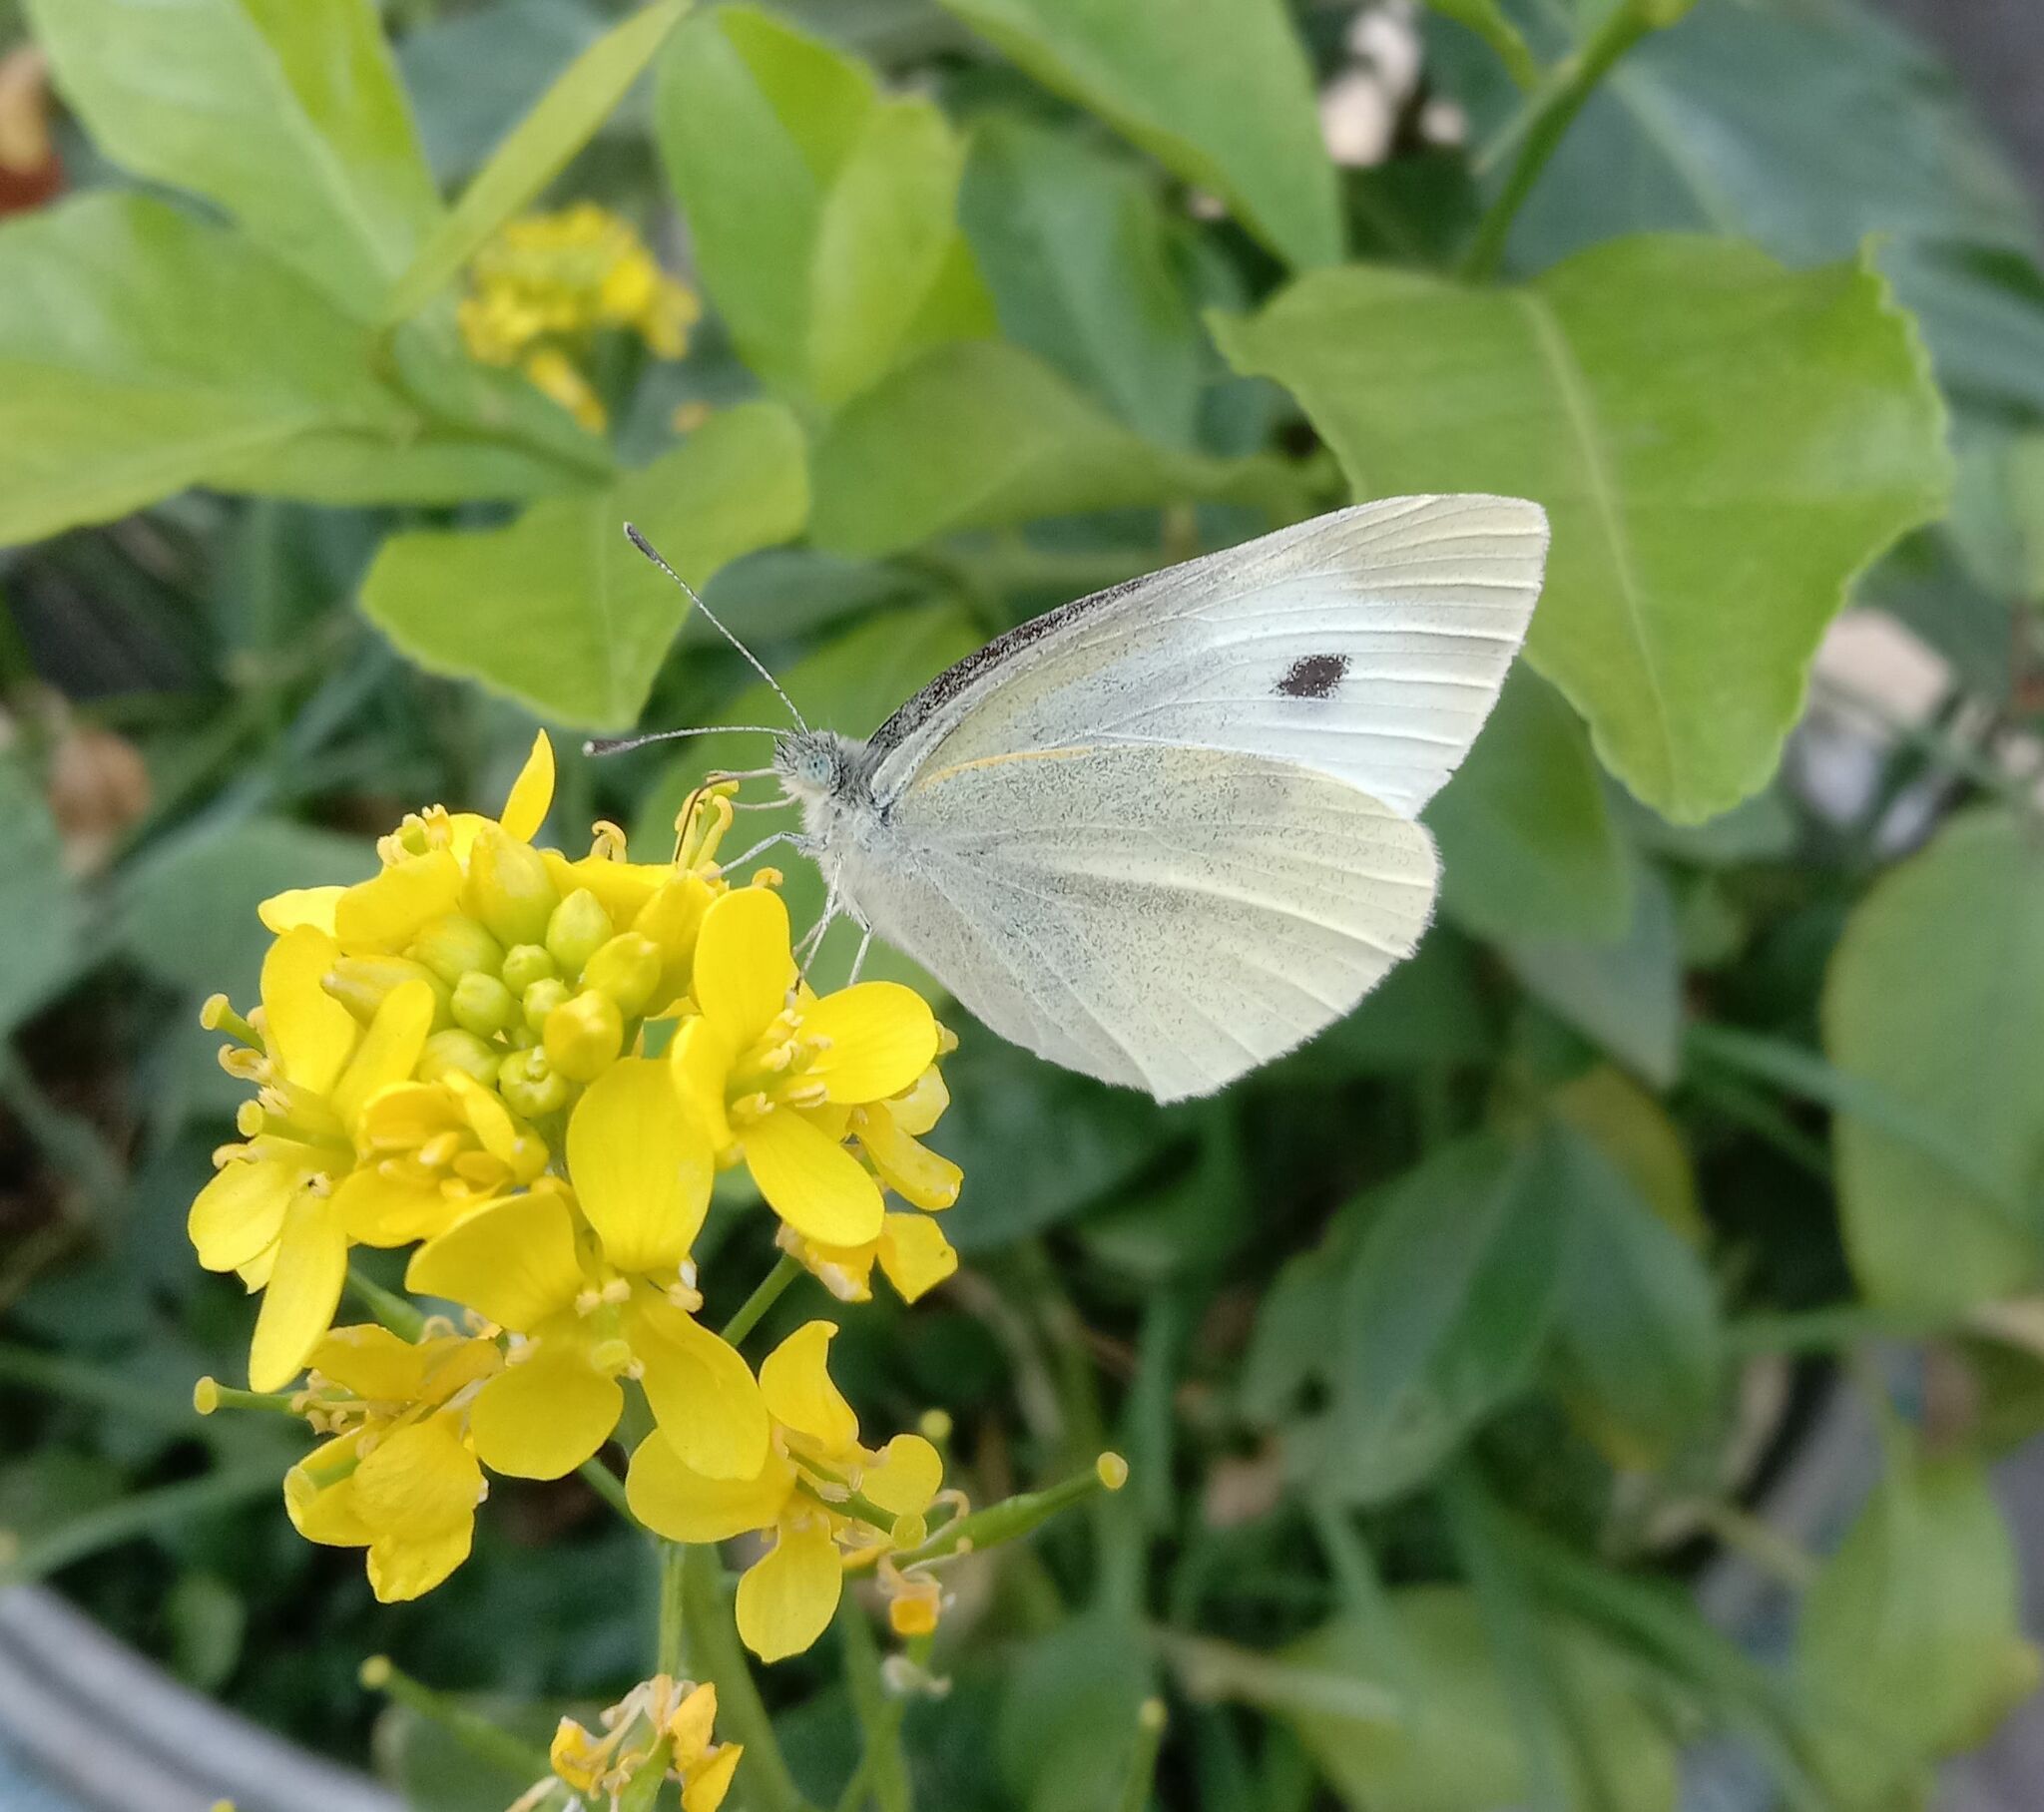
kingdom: Animalia
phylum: Arthropoda
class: Insecta
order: Lepidoptera
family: Pieridae
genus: Pieris
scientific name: Pieris rapae
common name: Small white
